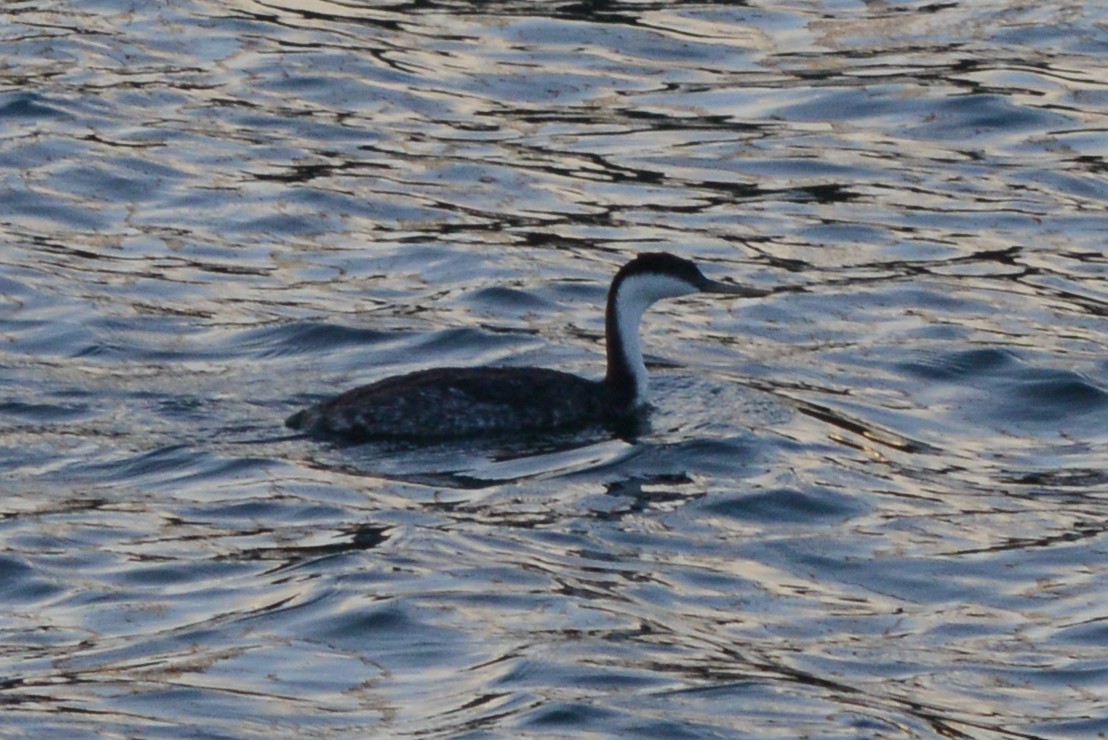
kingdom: Animalia
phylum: Chordata
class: Aves
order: Podicipediformes
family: Podicipedidae
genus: Aechmophorus
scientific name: Aechmophorus occidentalis
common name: Western grebe
